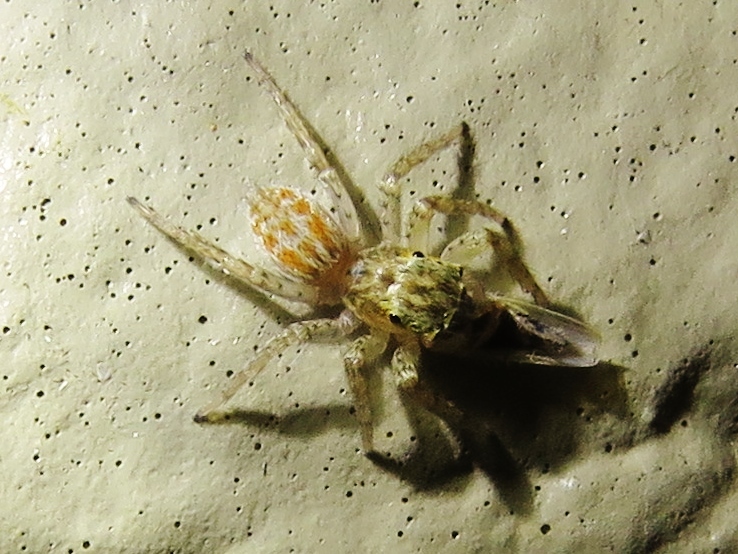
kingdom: Animalia
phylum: Arthropoda
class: Arachnida
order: Araneae
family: Salticidae
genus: Maevia
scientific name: Maevia inclemens
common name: Dimorphic jumper
